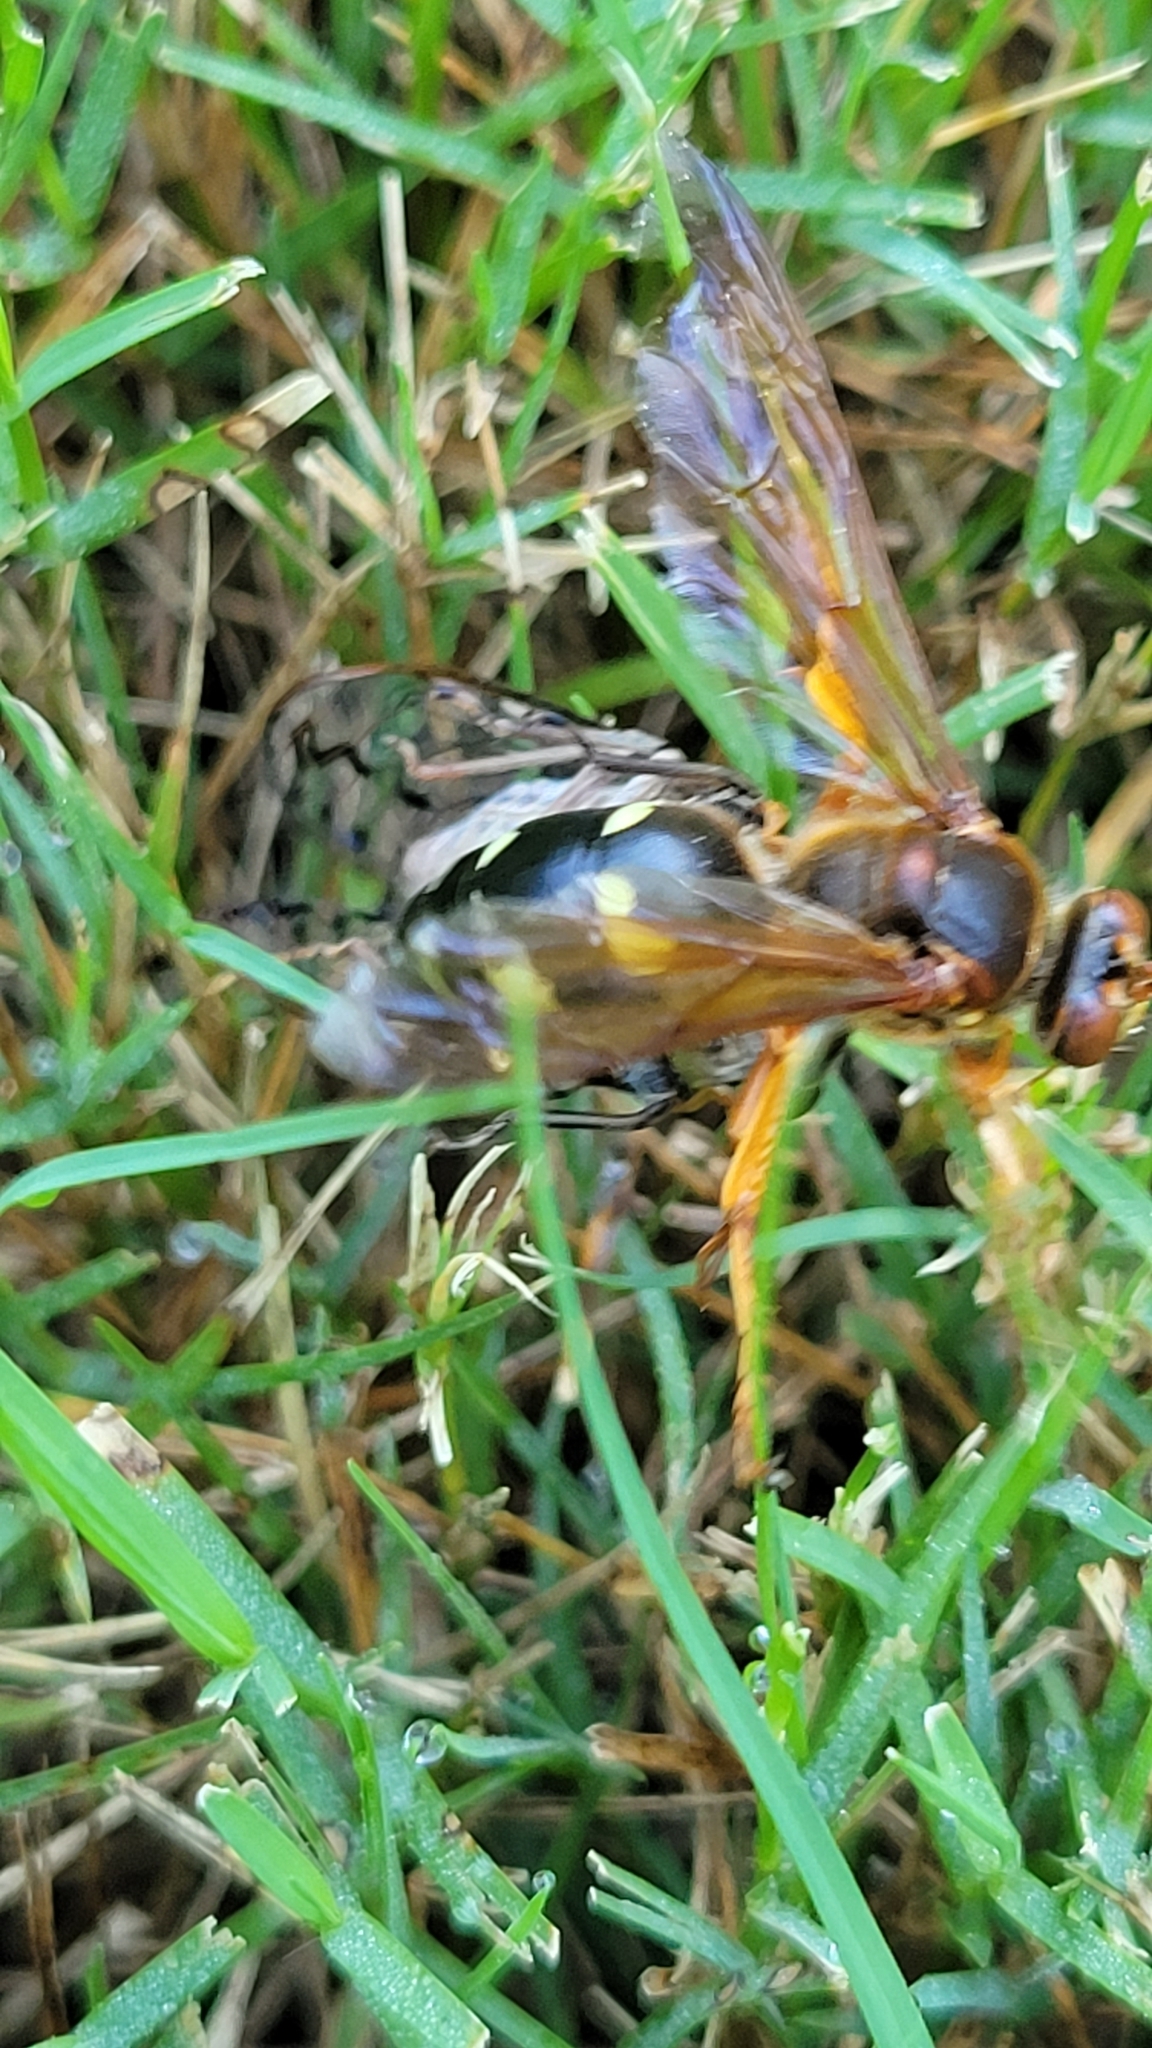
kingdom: Animalia
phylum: Arthropoda
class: Insecta
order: Hymenoptera
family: Crabronidae
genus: Sphecius
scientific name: Sphecius speciosus
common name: Cicada killer
